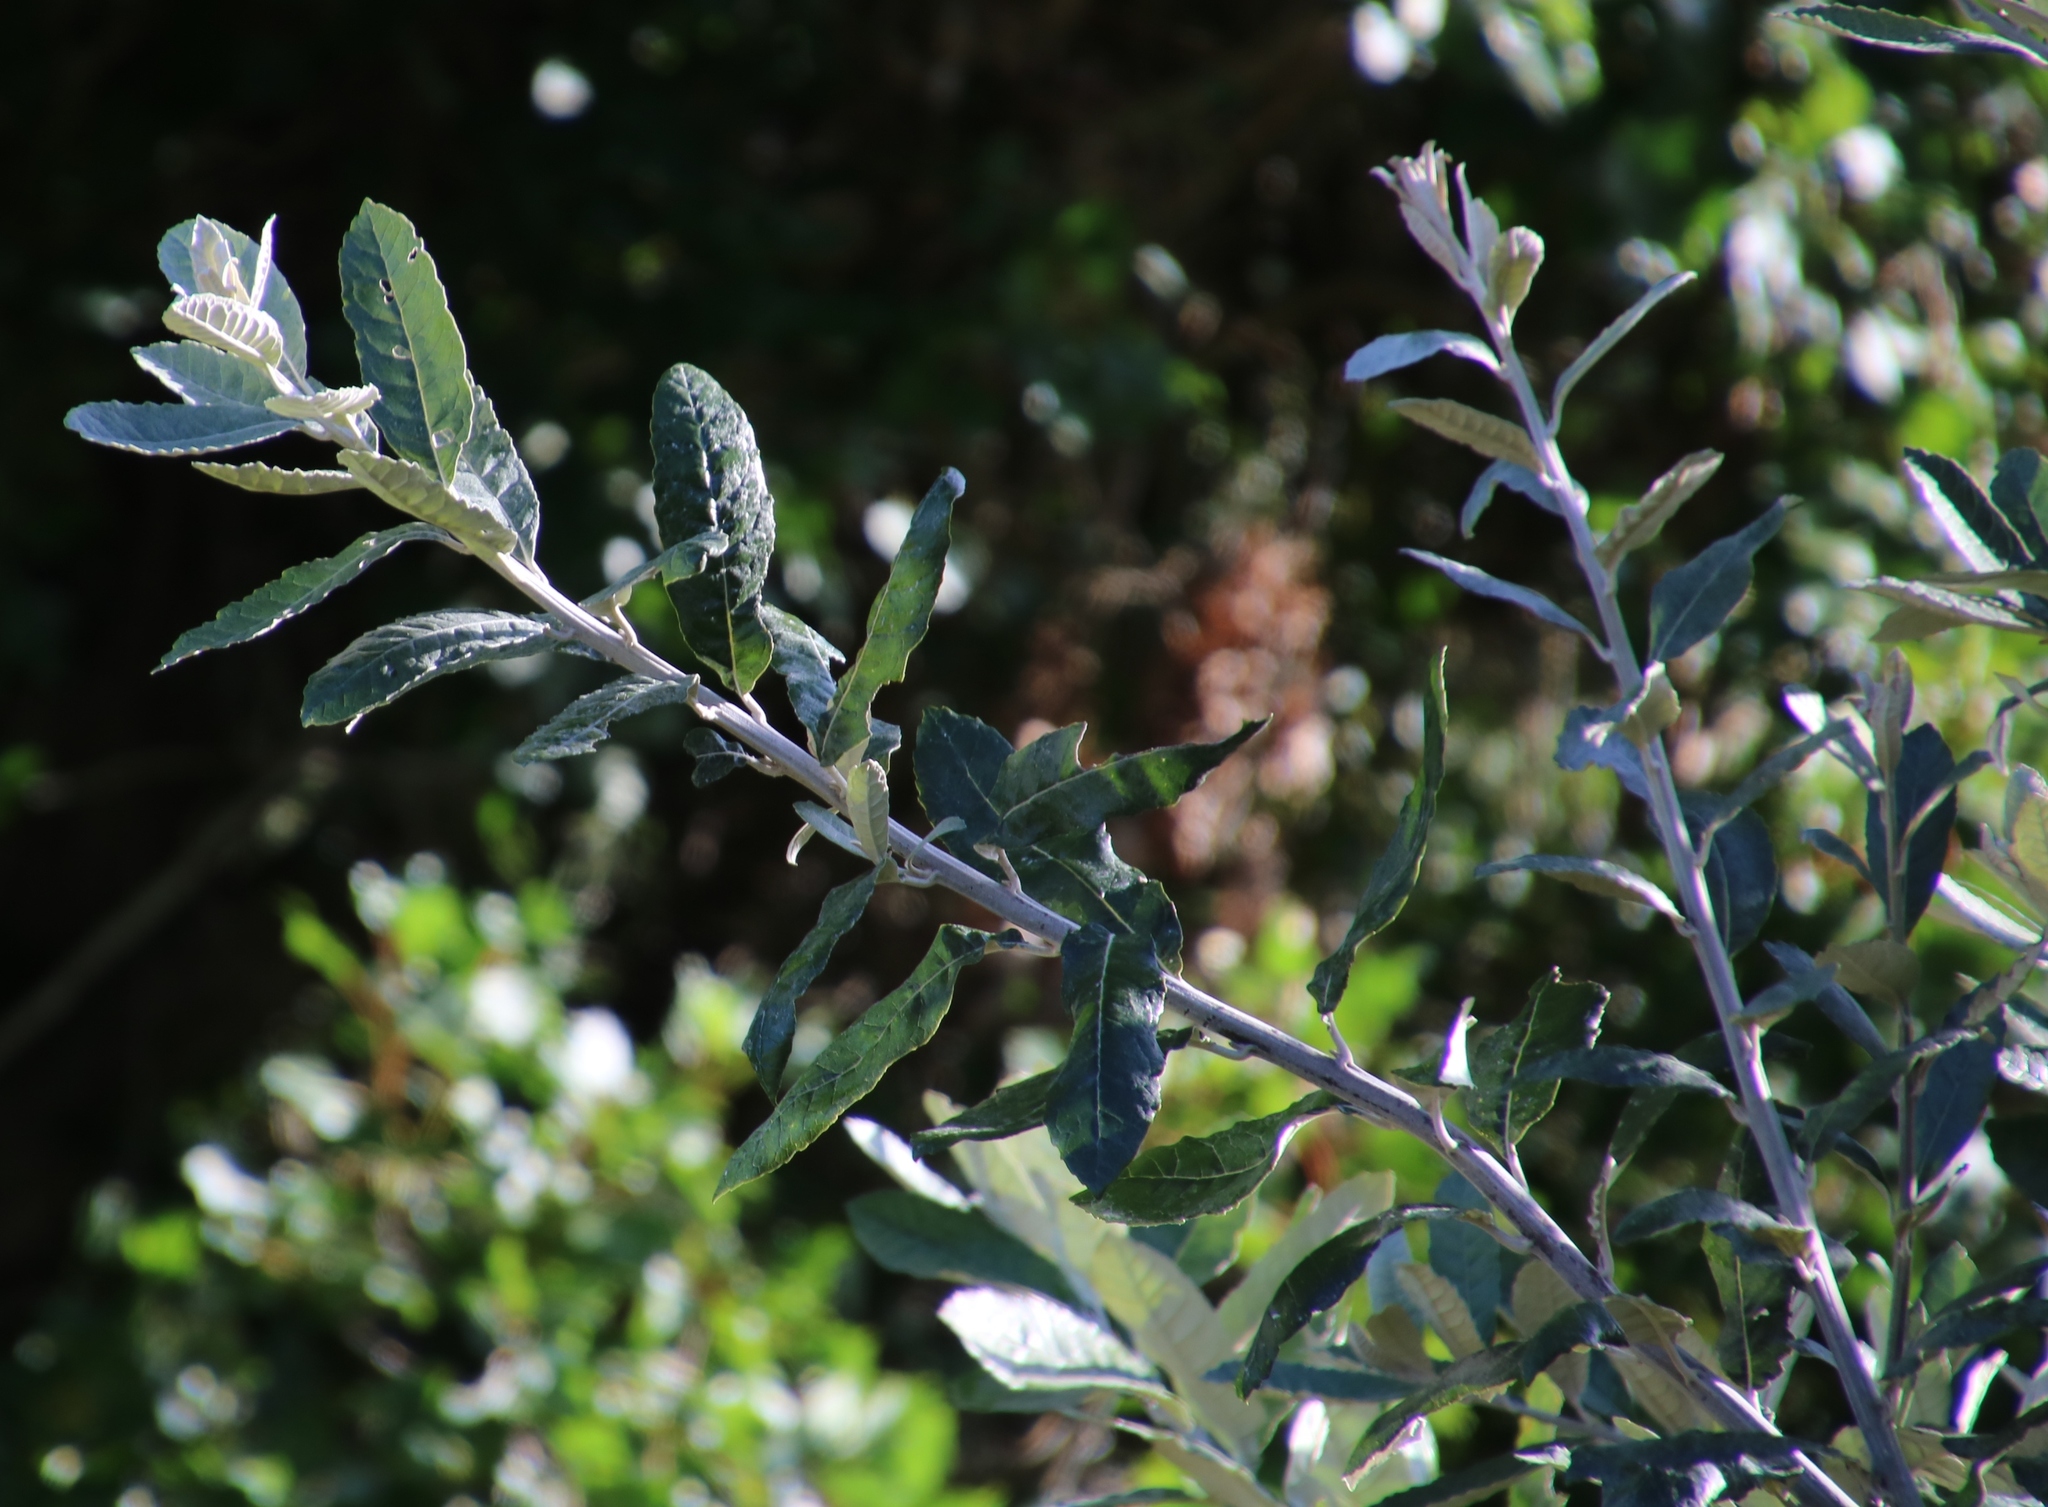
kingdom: Plantae
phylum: Tracheophyta
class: Magnoliopsida
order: Asterales
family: Asteraceae
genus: Brachylaena
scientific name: Brachylaena discolor
